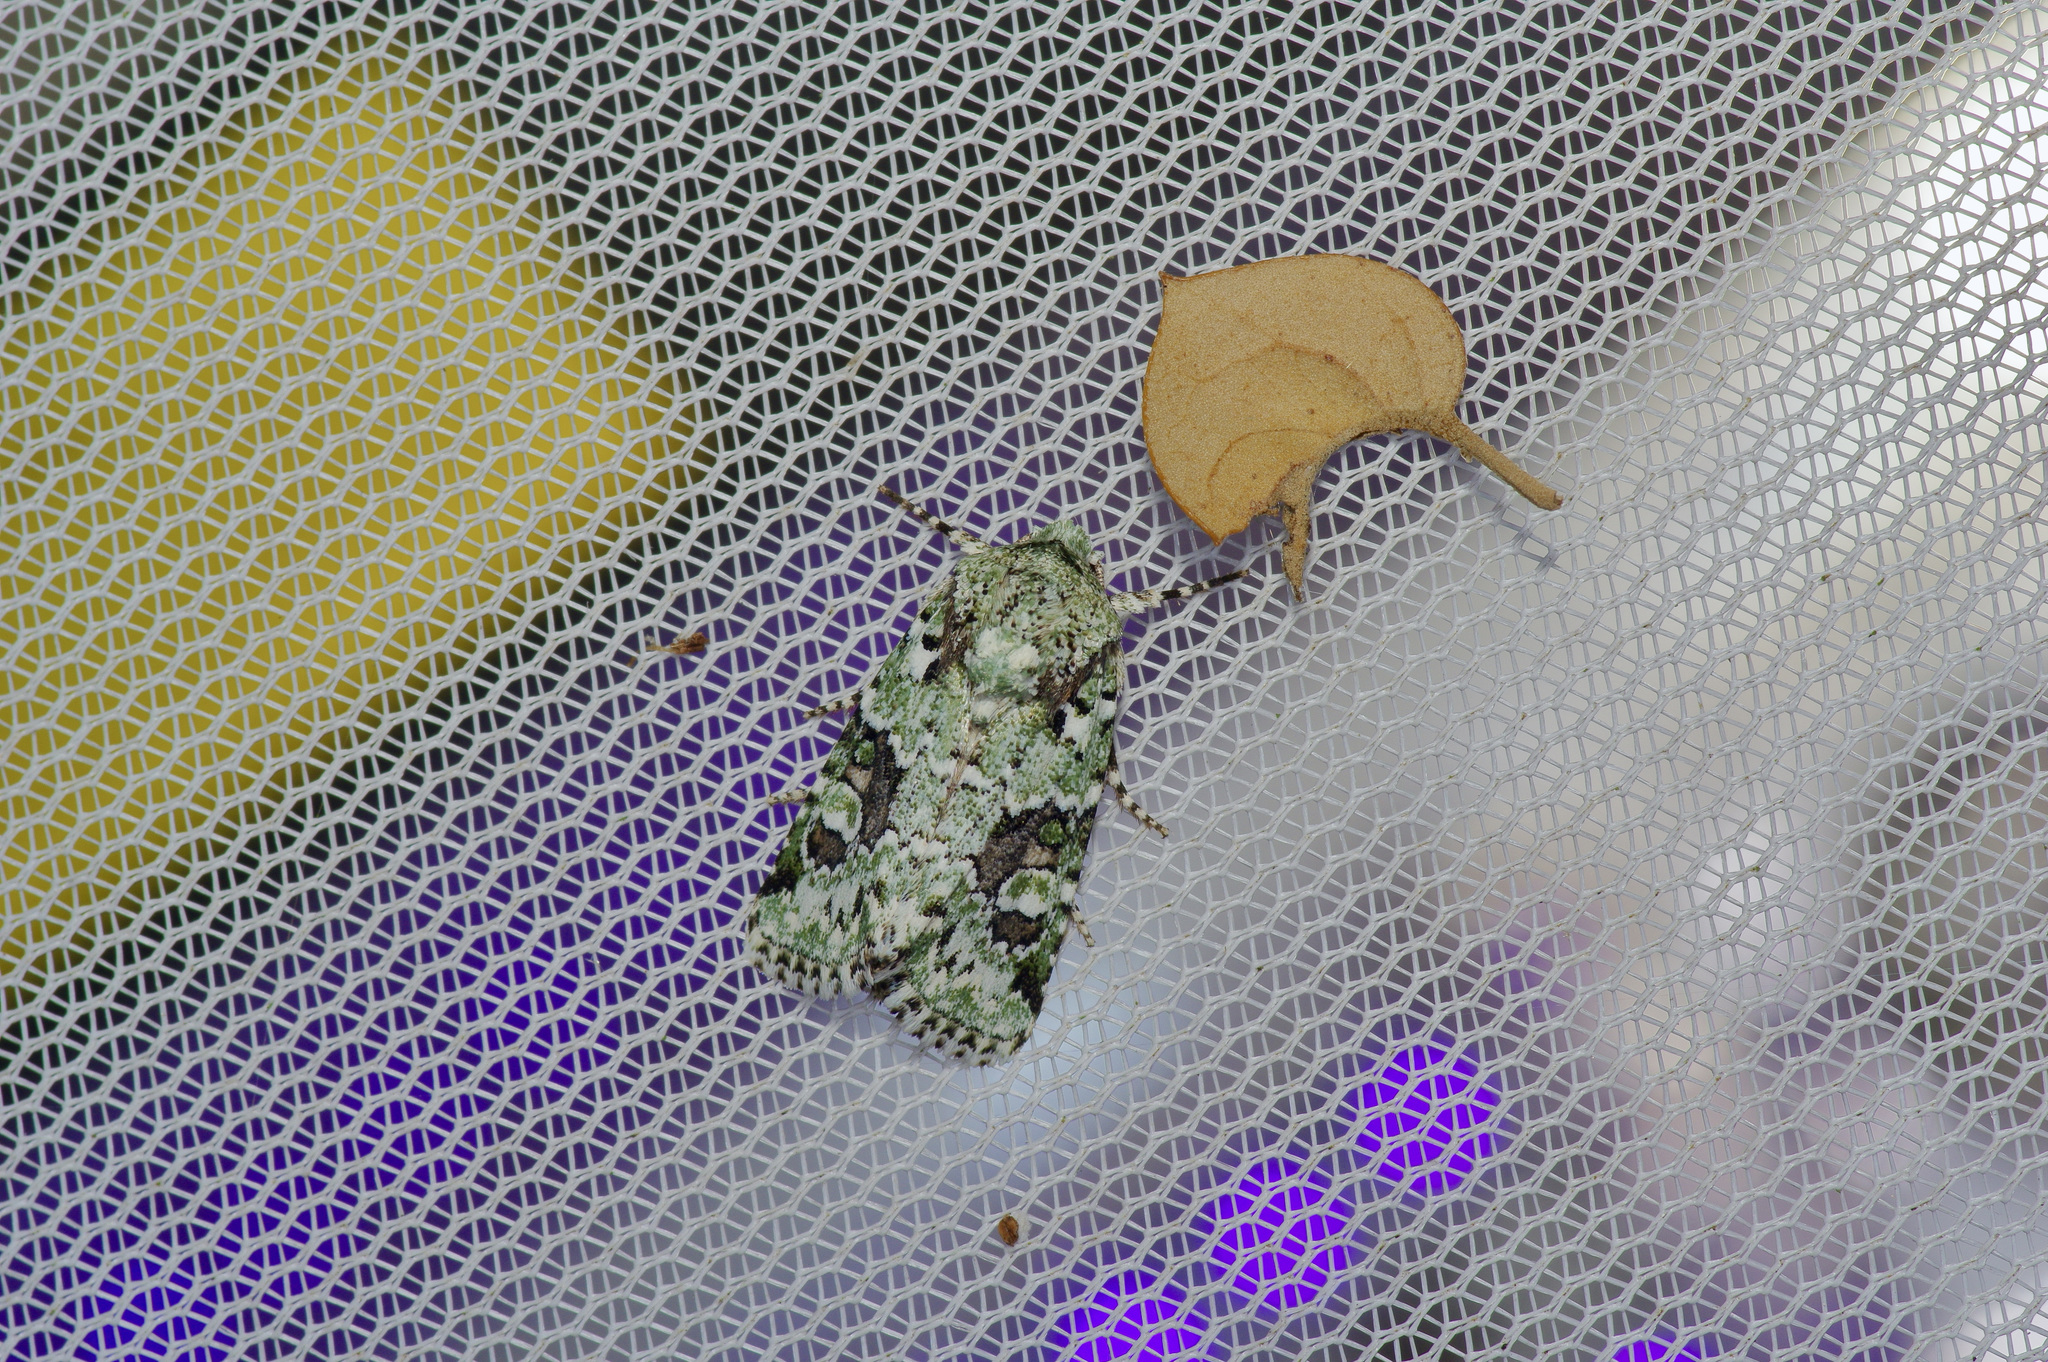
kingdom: Animalia
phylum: Arthropoda
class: Insecta
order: Lepidoptera
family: Noctuidae
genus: Lacinipolia
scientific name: Lacinipolia laudabilis
